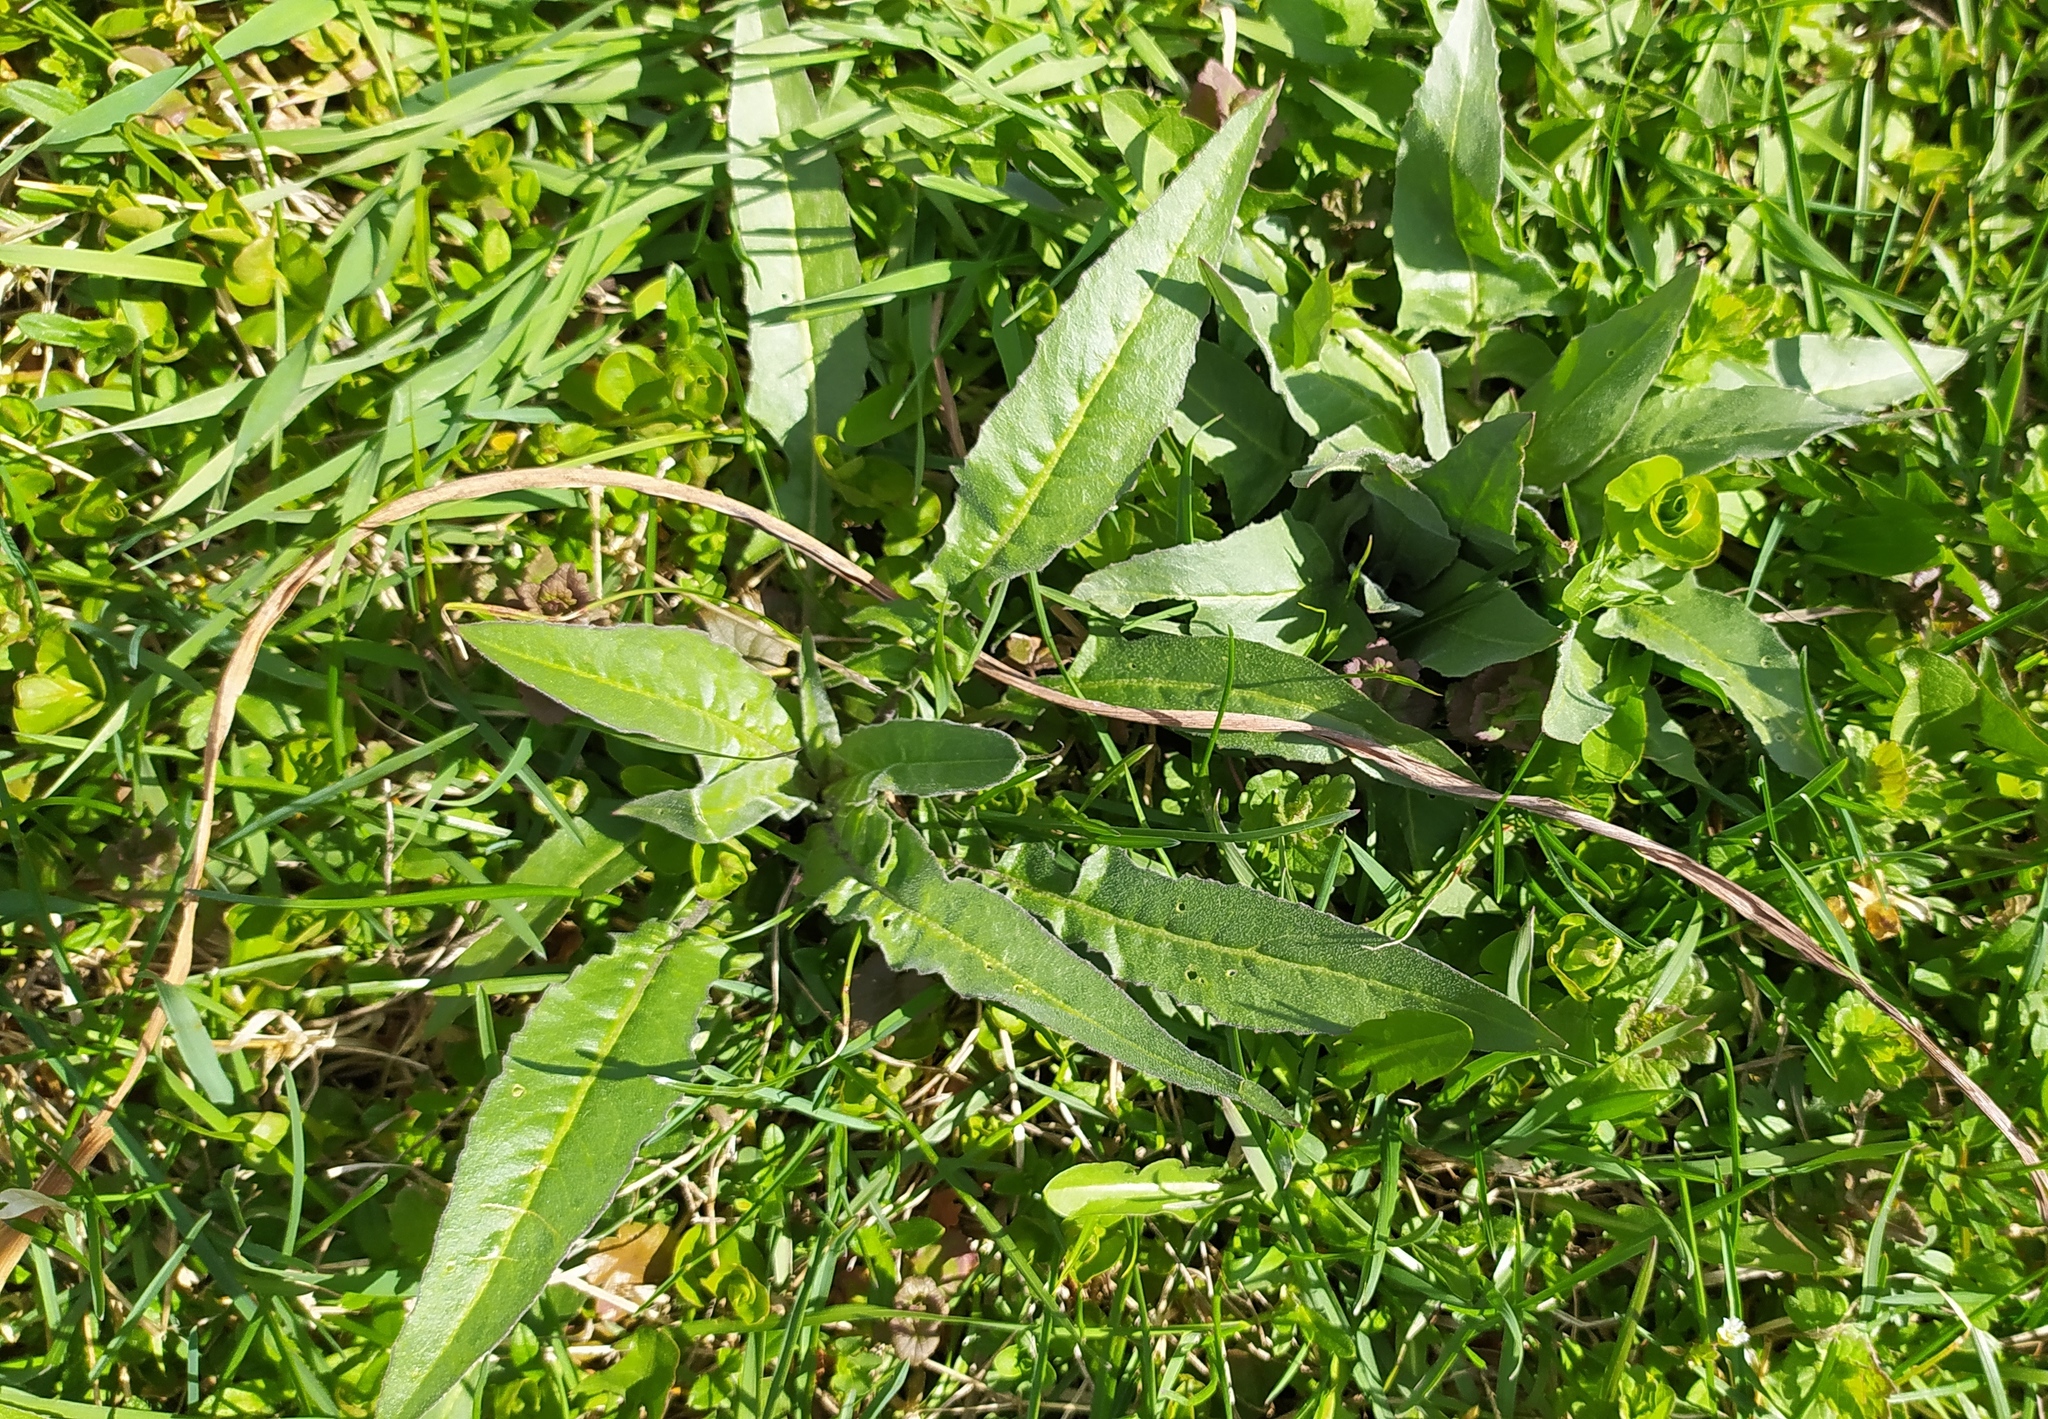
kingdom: Plantae
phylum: Tracheophyta
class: Magnoliopsida
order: Brassicales
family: Brassicaceae
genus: Bunias
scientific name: Bunias orientalis
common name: Warty-cabbage
